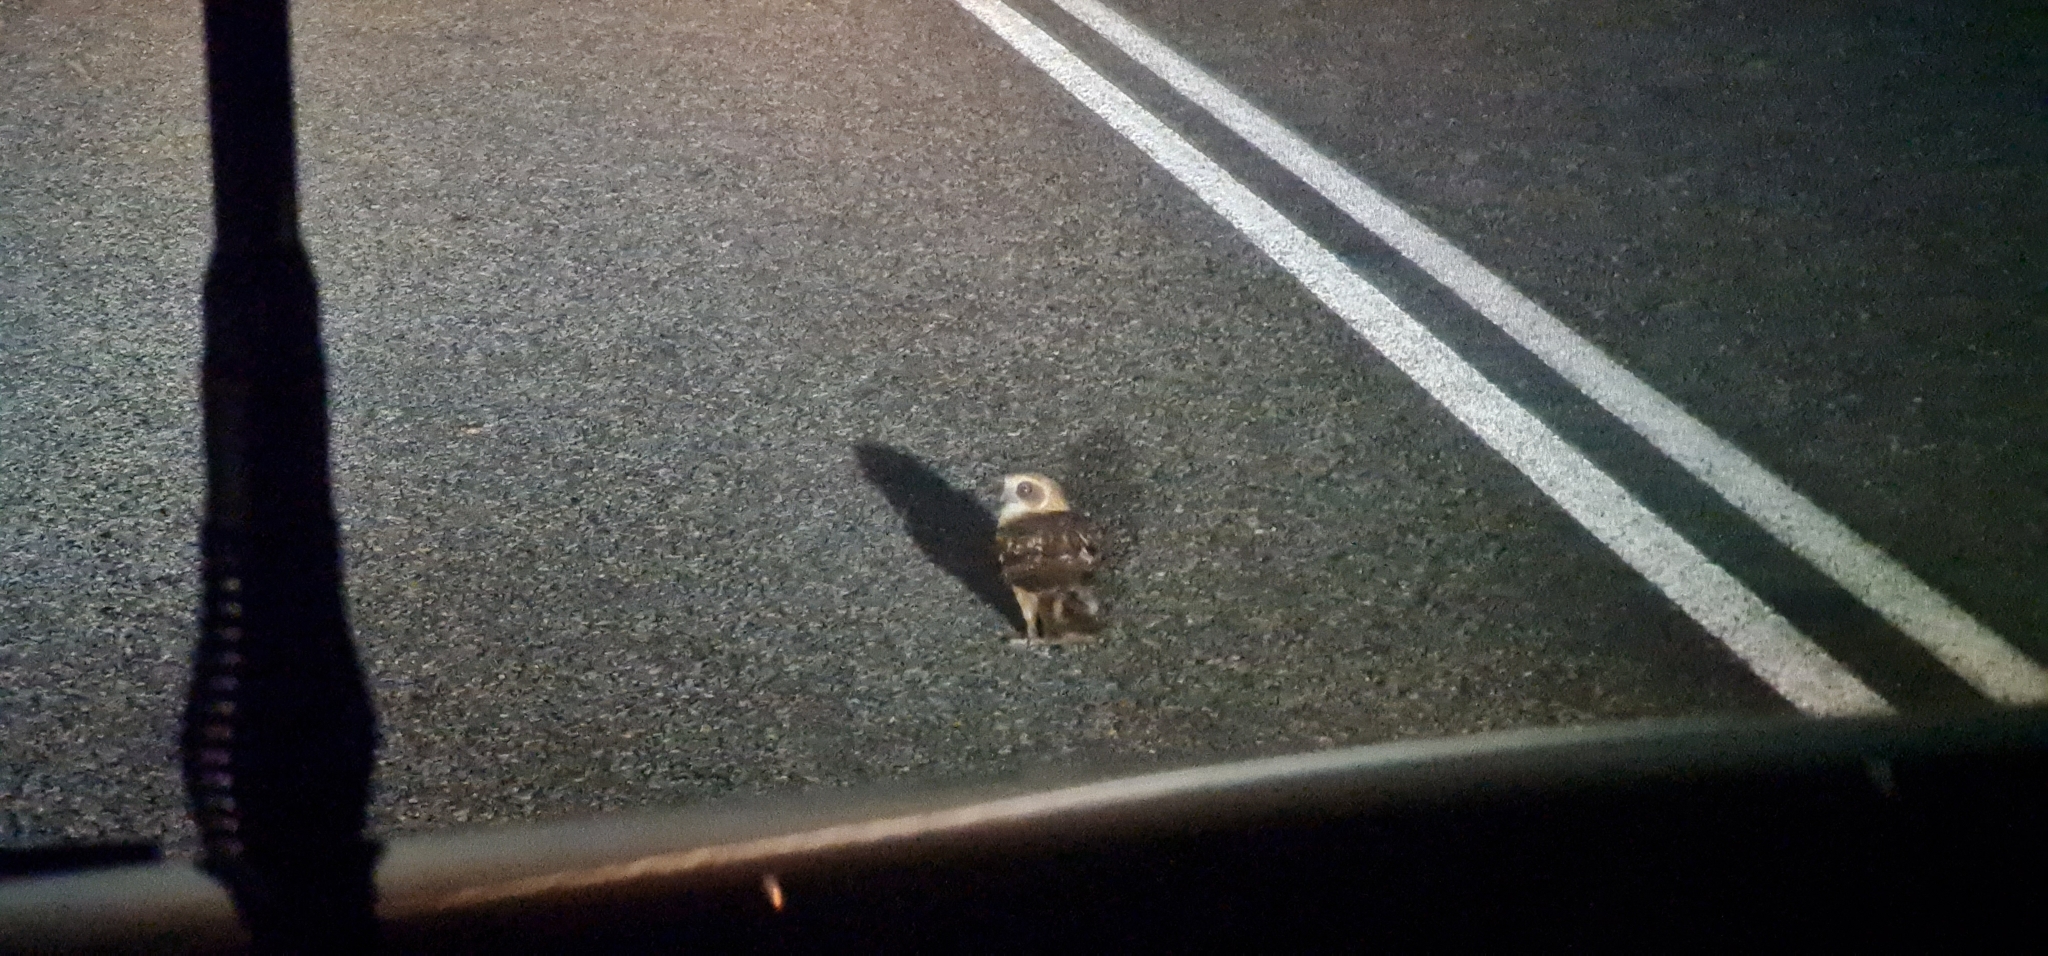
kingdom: Animalia
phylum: Chordata
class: Aves
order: Strigiformes
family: Strigidae
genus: Ninox
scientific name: Ninox boobook
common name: Southern boobook
